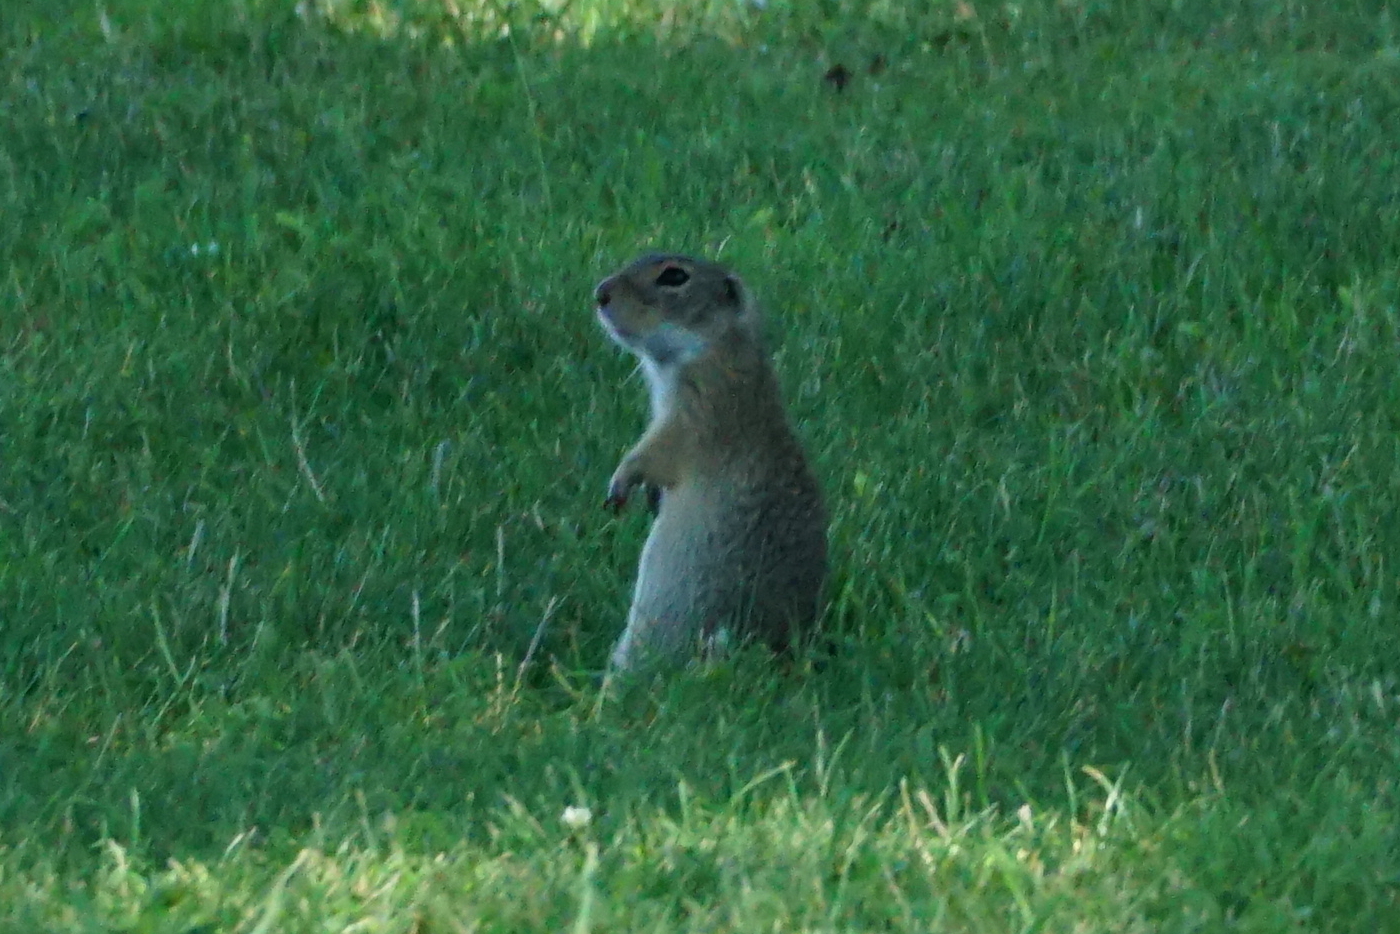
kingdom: Animalia
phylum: Chordata
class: Mammalia
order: Rodentia
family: Sciuridae
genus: Spermophilus
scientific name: Spermophilus citellus
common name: European ground squirrel
